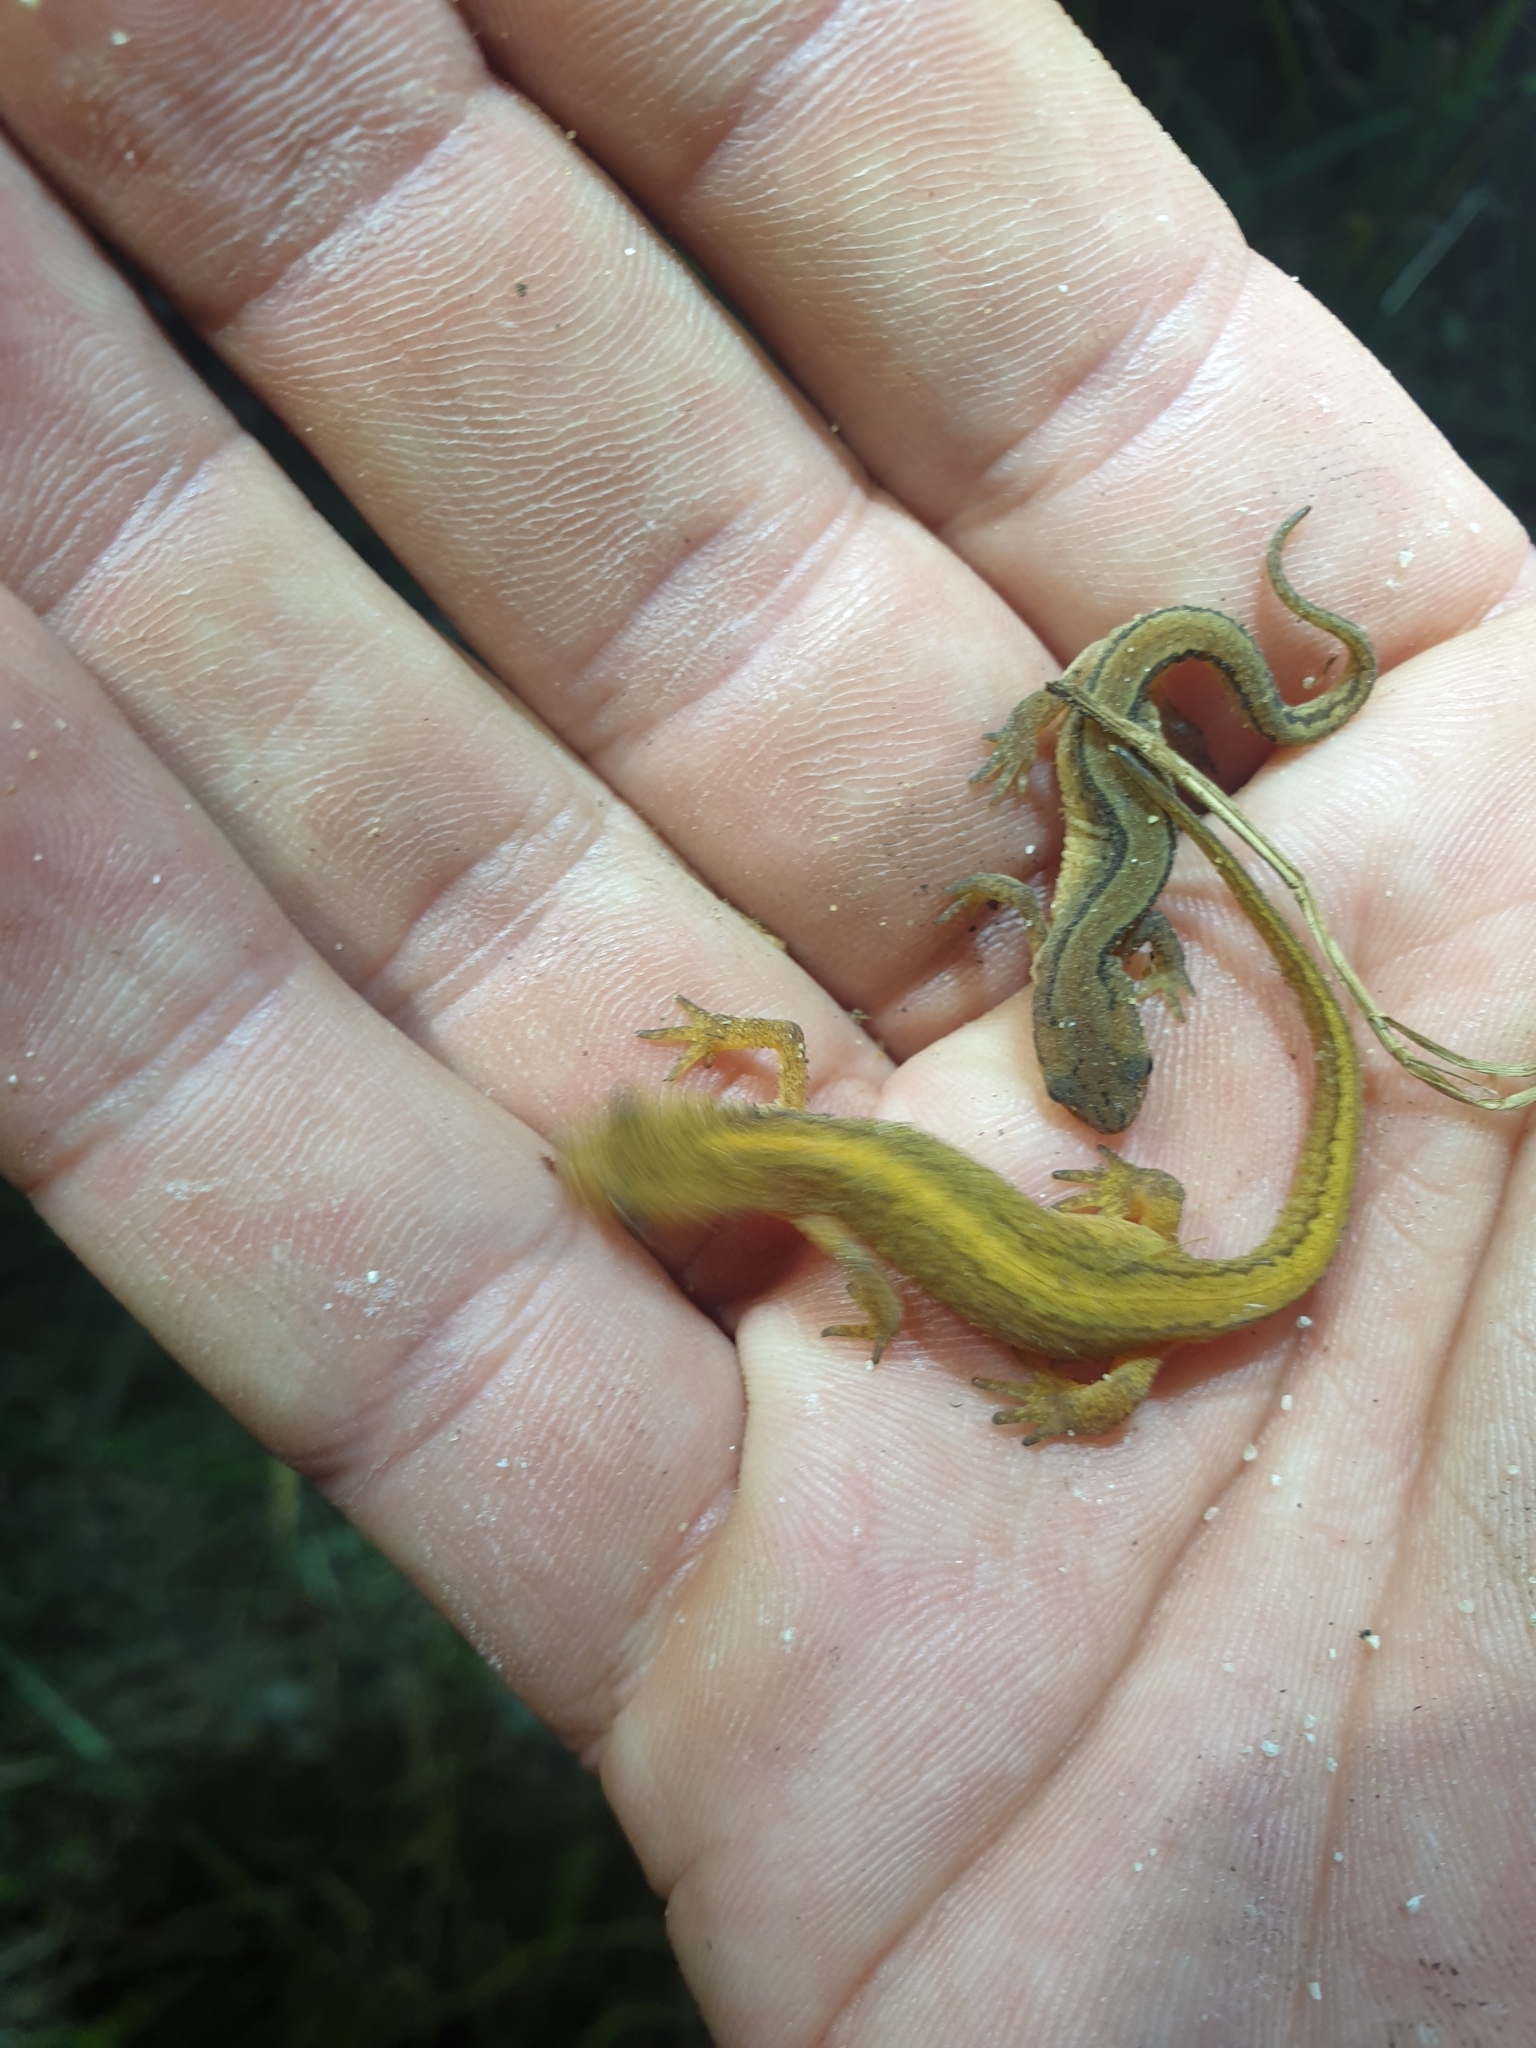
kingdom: Animalia
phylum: Chordata
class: Amphibia
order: Caudata
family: Salamandridae
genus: Lissotriton
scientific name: Lissotriton vulgaris
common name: Smooth newt
